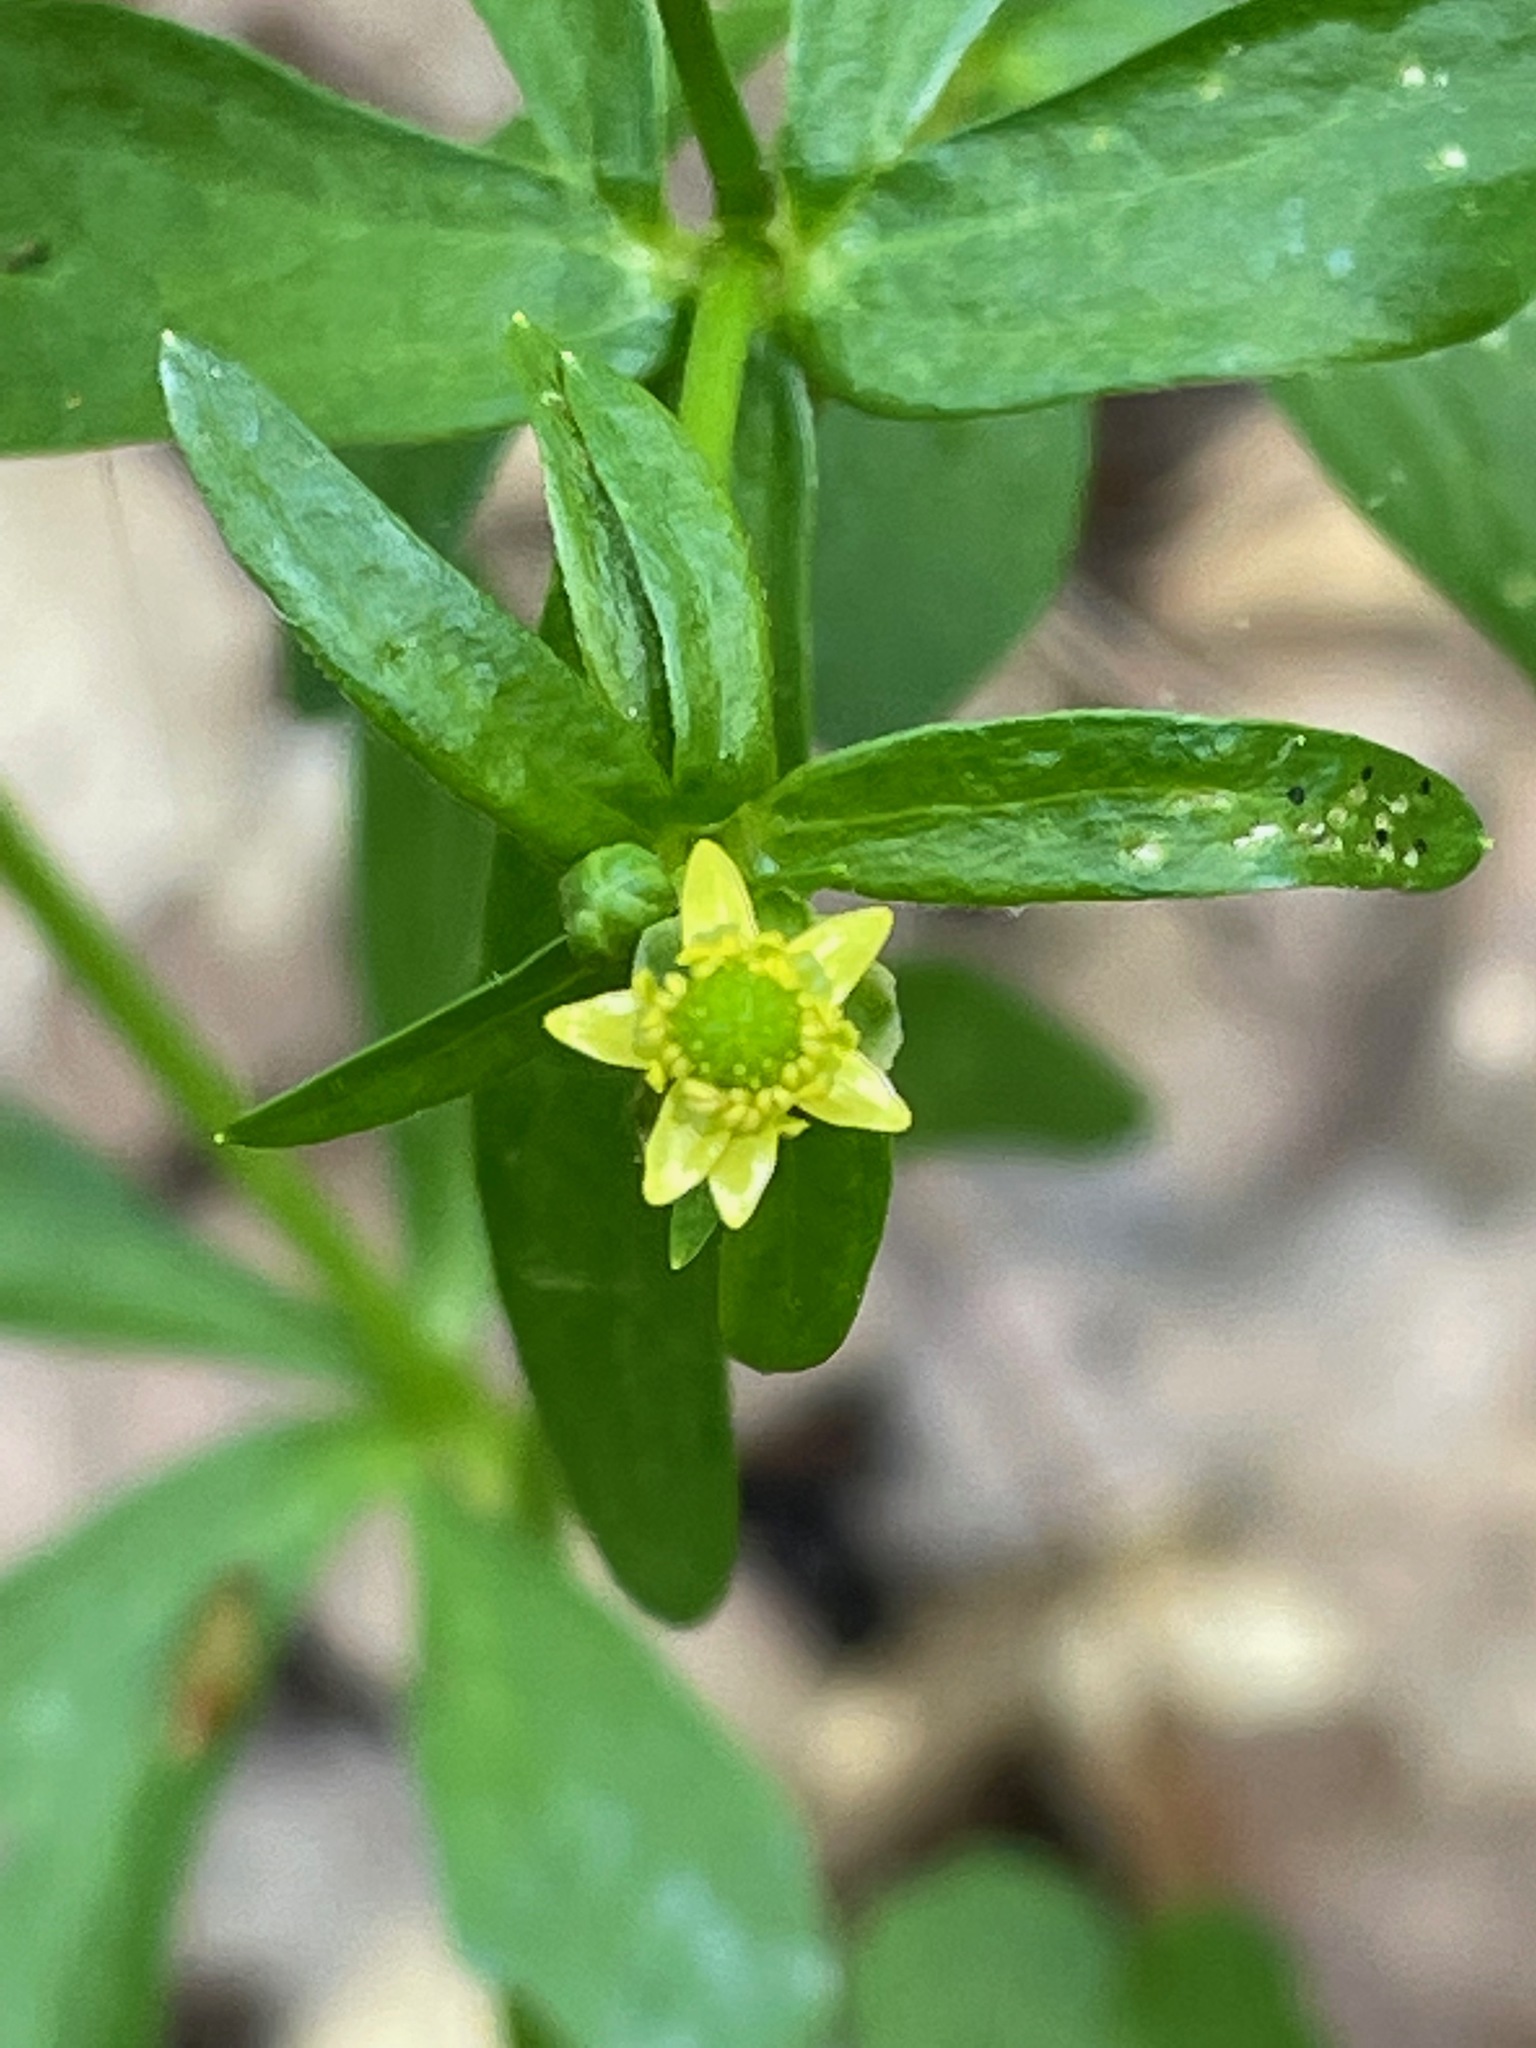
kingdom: Plantae
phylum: Tracheophyta
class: Magnoliopsida
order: Ranunculales
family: Ranunculaceae
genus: Ranunculus
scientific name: Ranunculus abortivus
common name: Early wood buttercup
